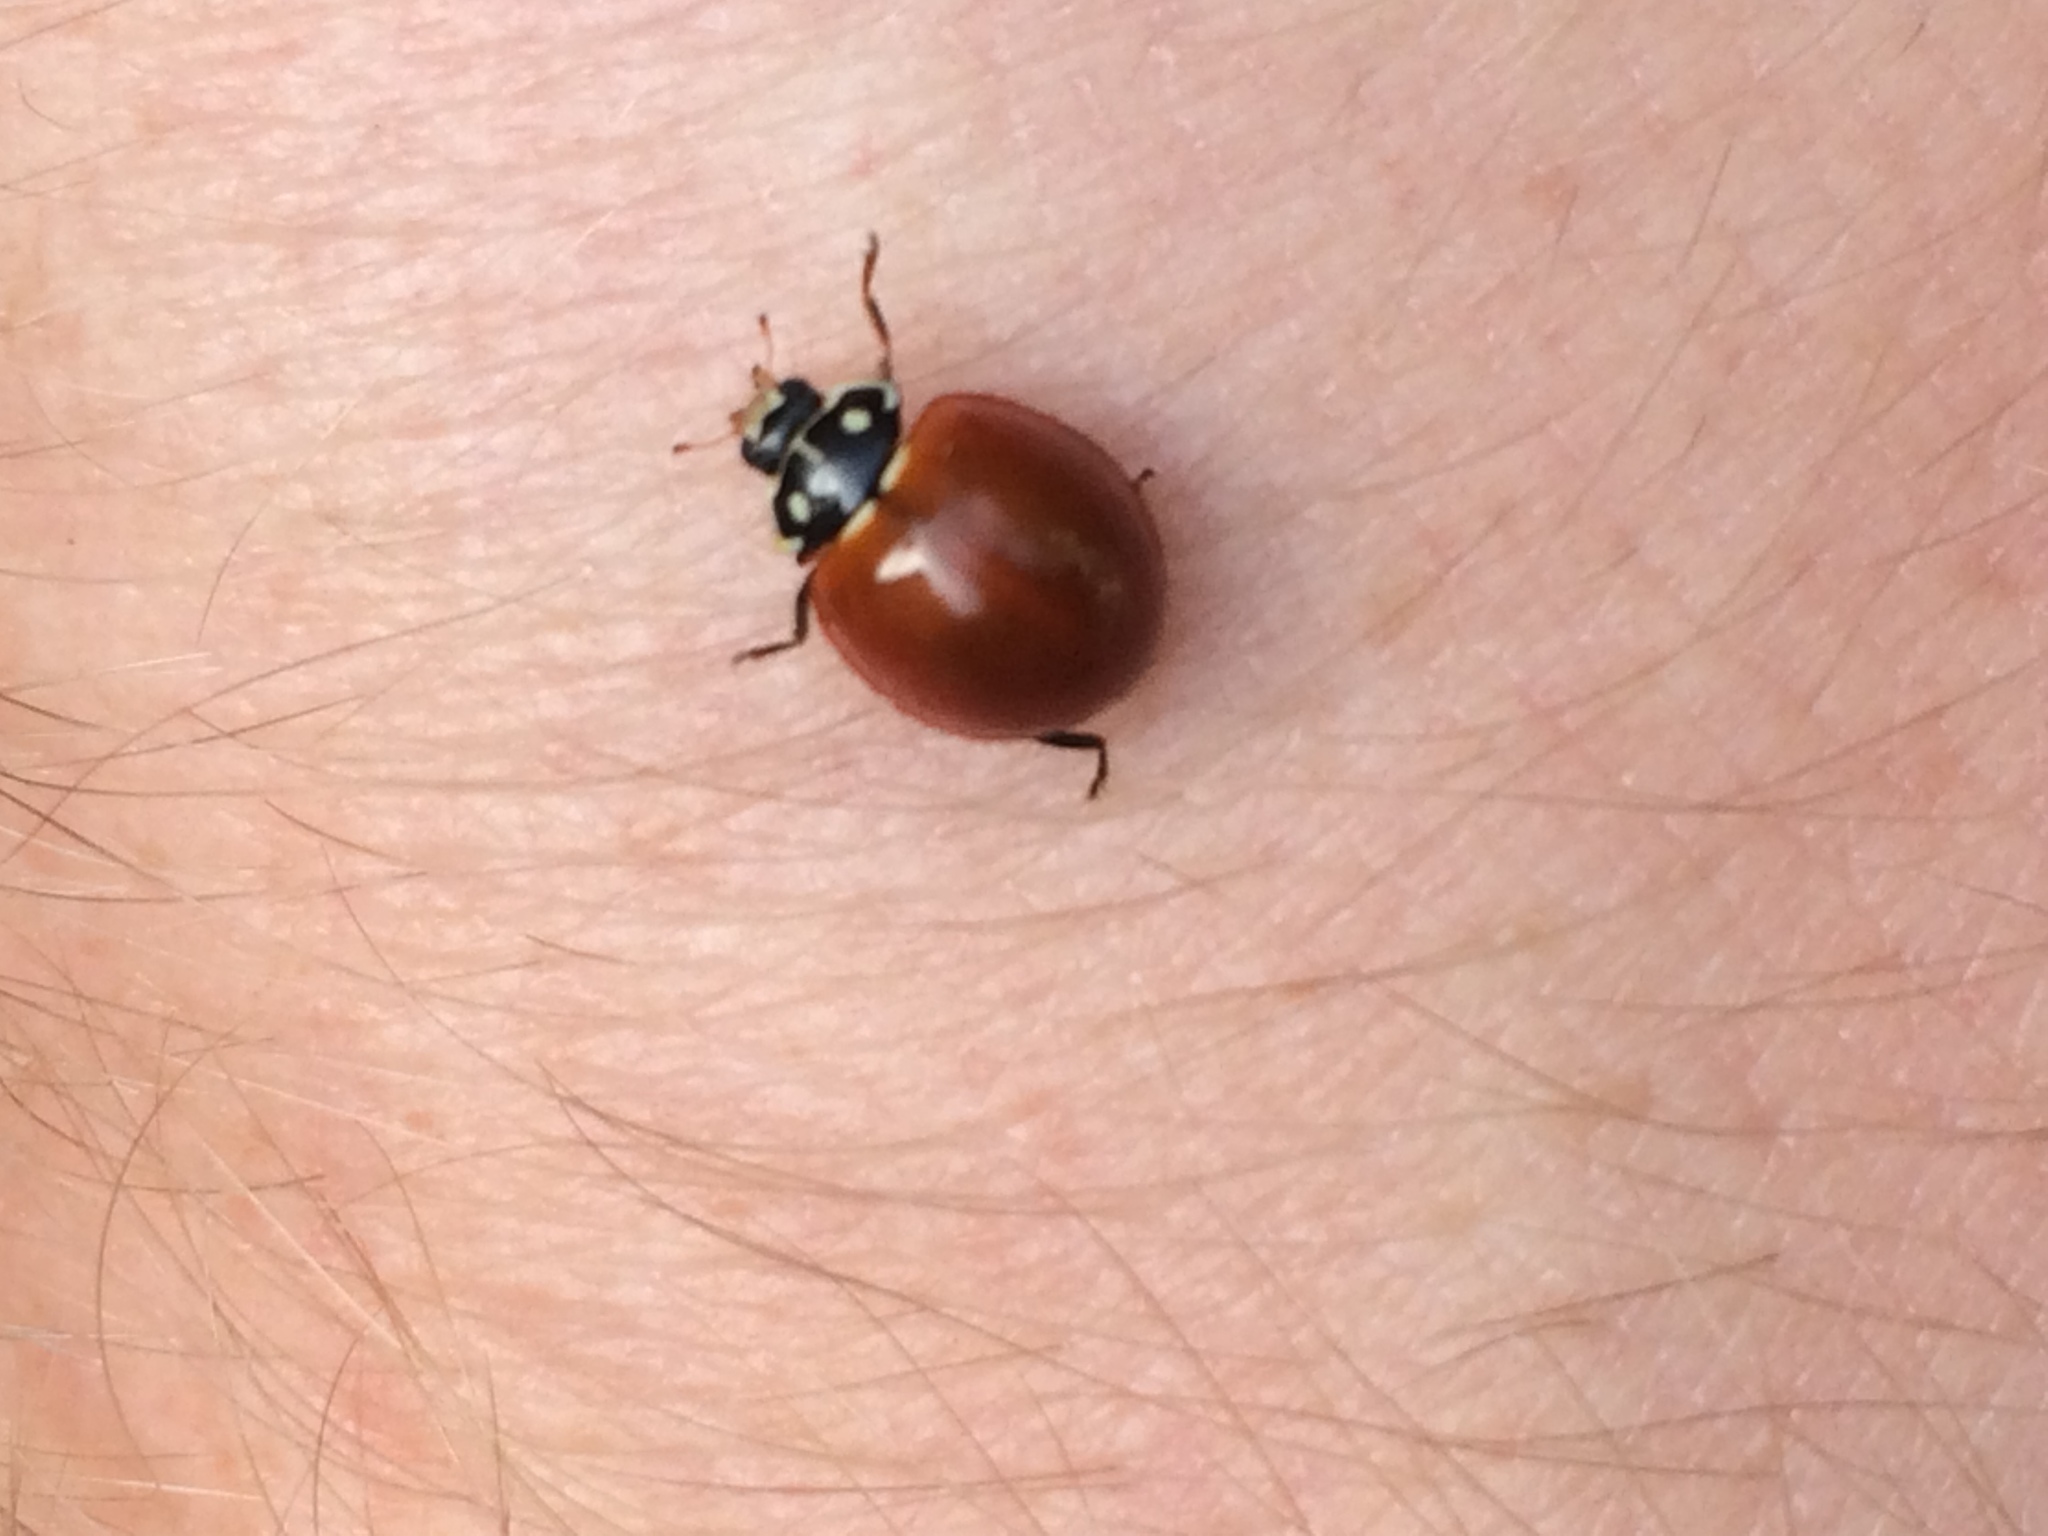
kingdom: Animalia
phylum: Arthropoda
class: Insecta
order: Coleoptera
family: Coccinellidae
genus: Cycloneda
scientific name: Cycloneda sanguinea
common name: Ladybird beetle
